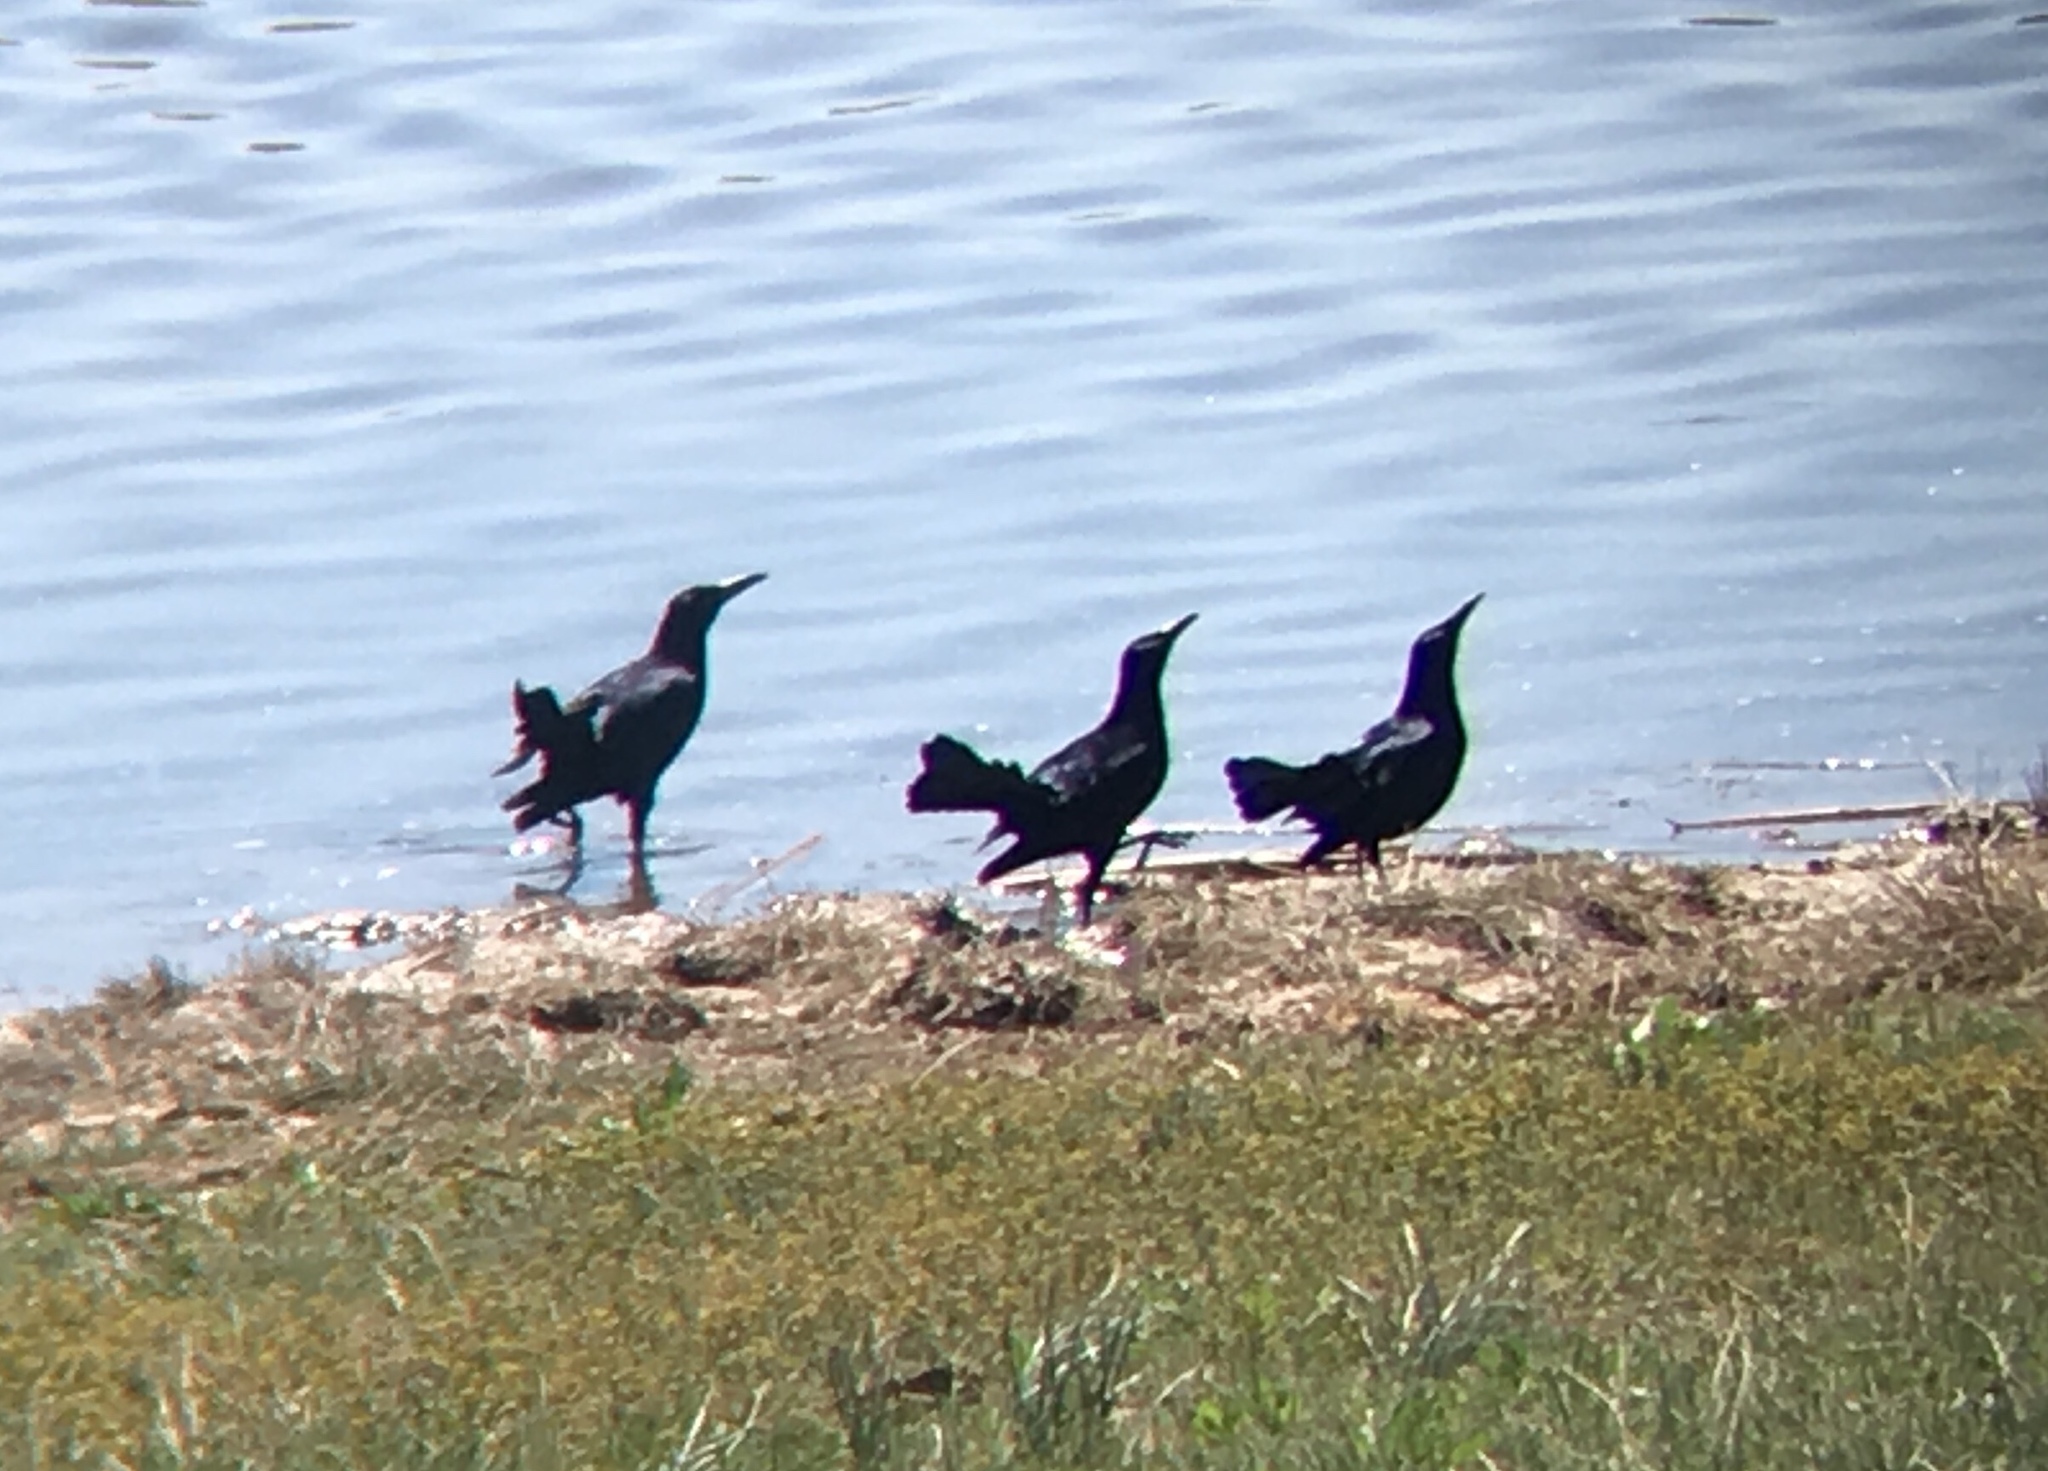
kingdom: Animalia
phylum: Chordata
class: Aves
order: Passeriformes
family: Icteridae
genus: Quiscalus
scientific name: Quiscalus mexicanus
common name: Great-tailed grackle
